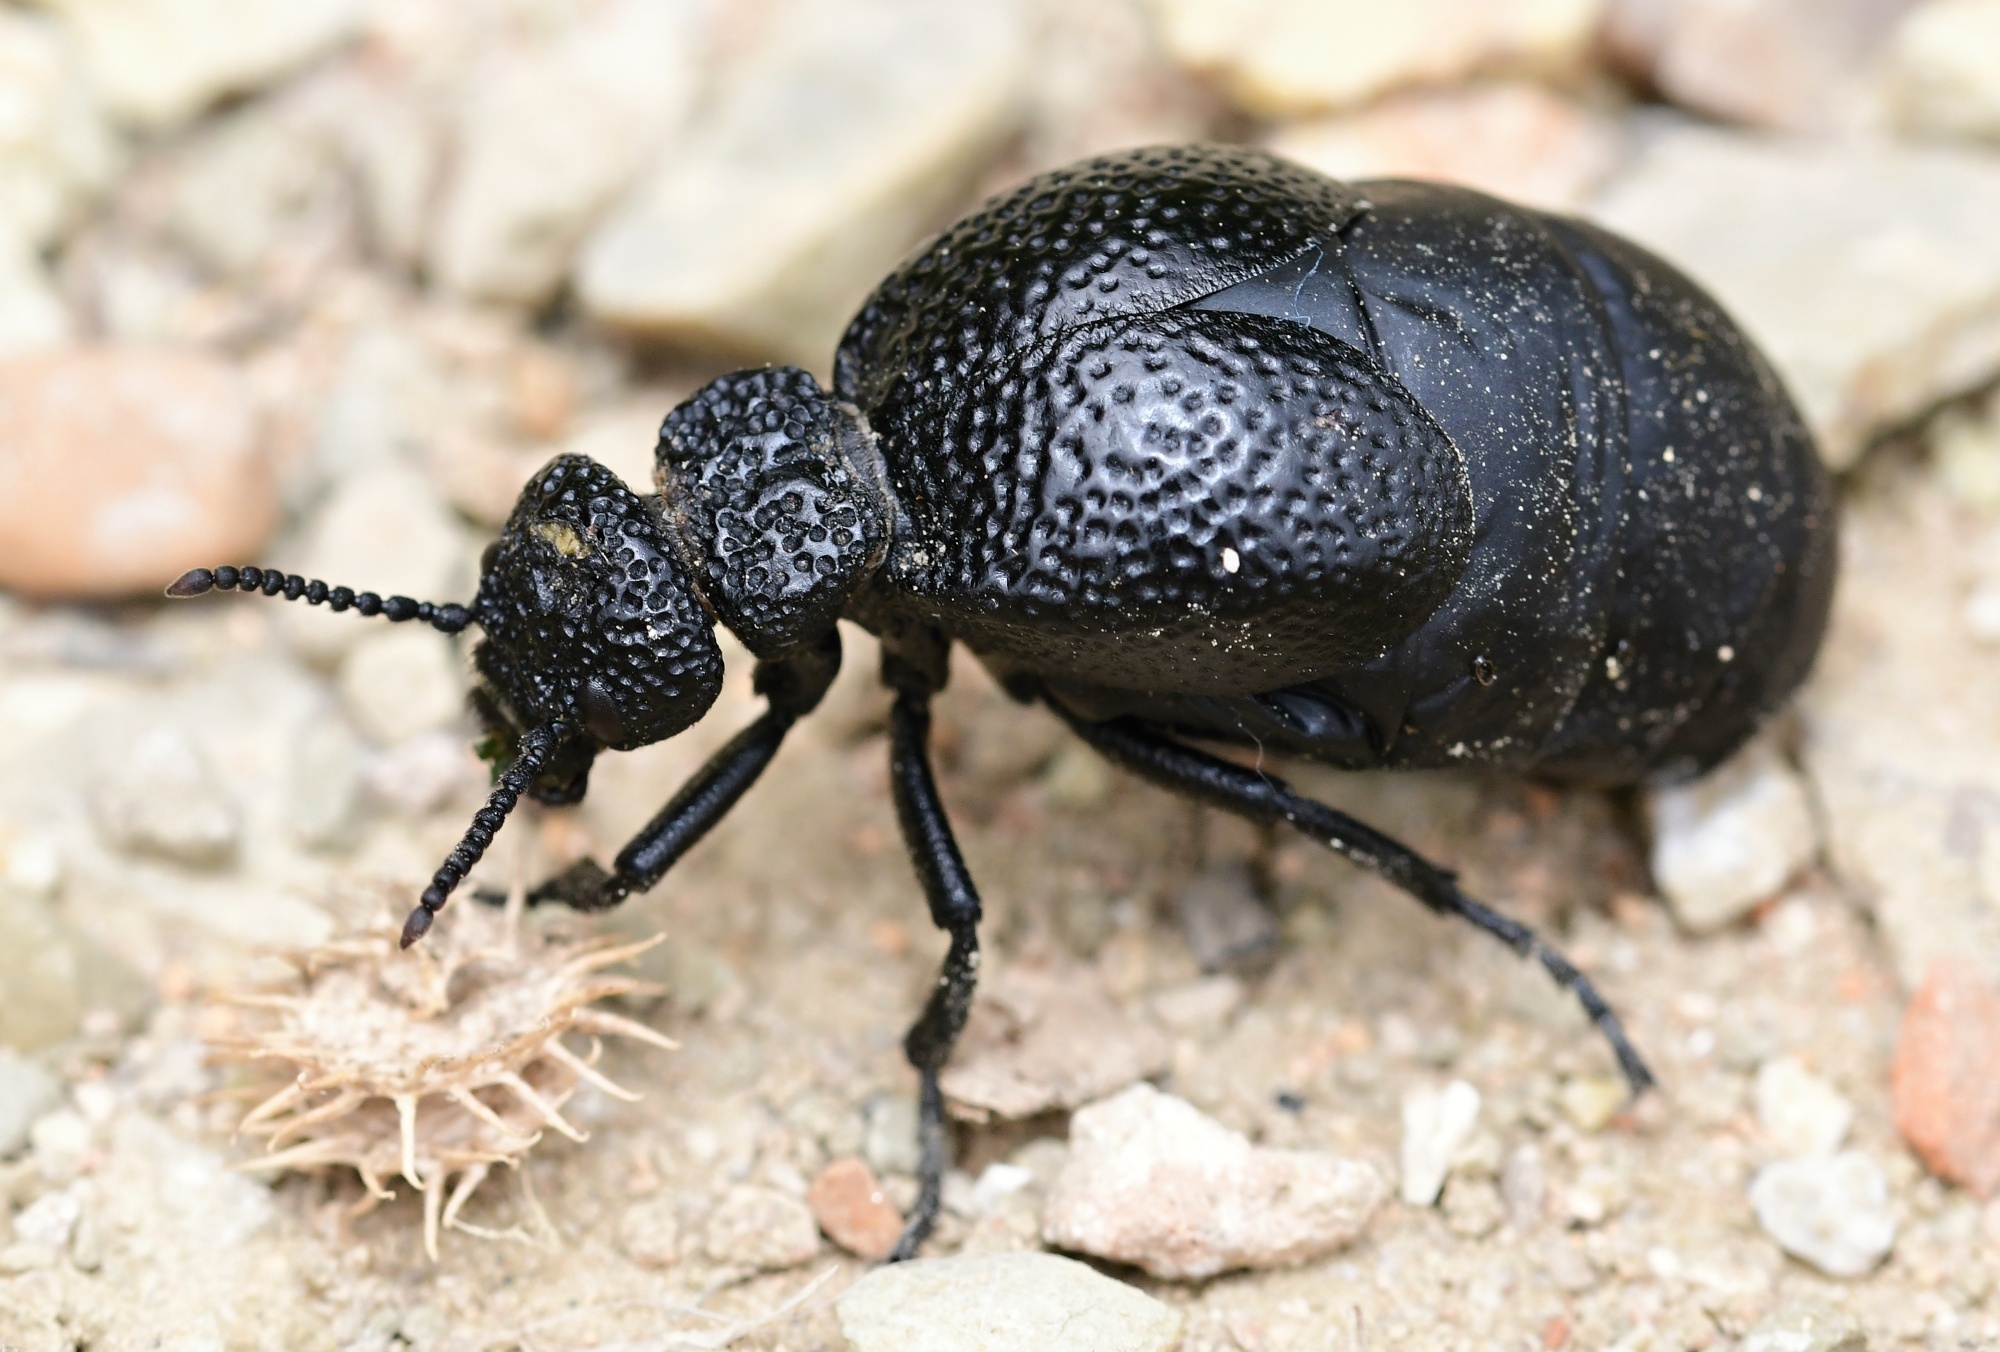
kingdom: Animalia
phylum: Arthropoda
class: Insecta
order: Coleoptera
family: Meloidae
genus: Meloe
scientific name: Meloe tuccius
